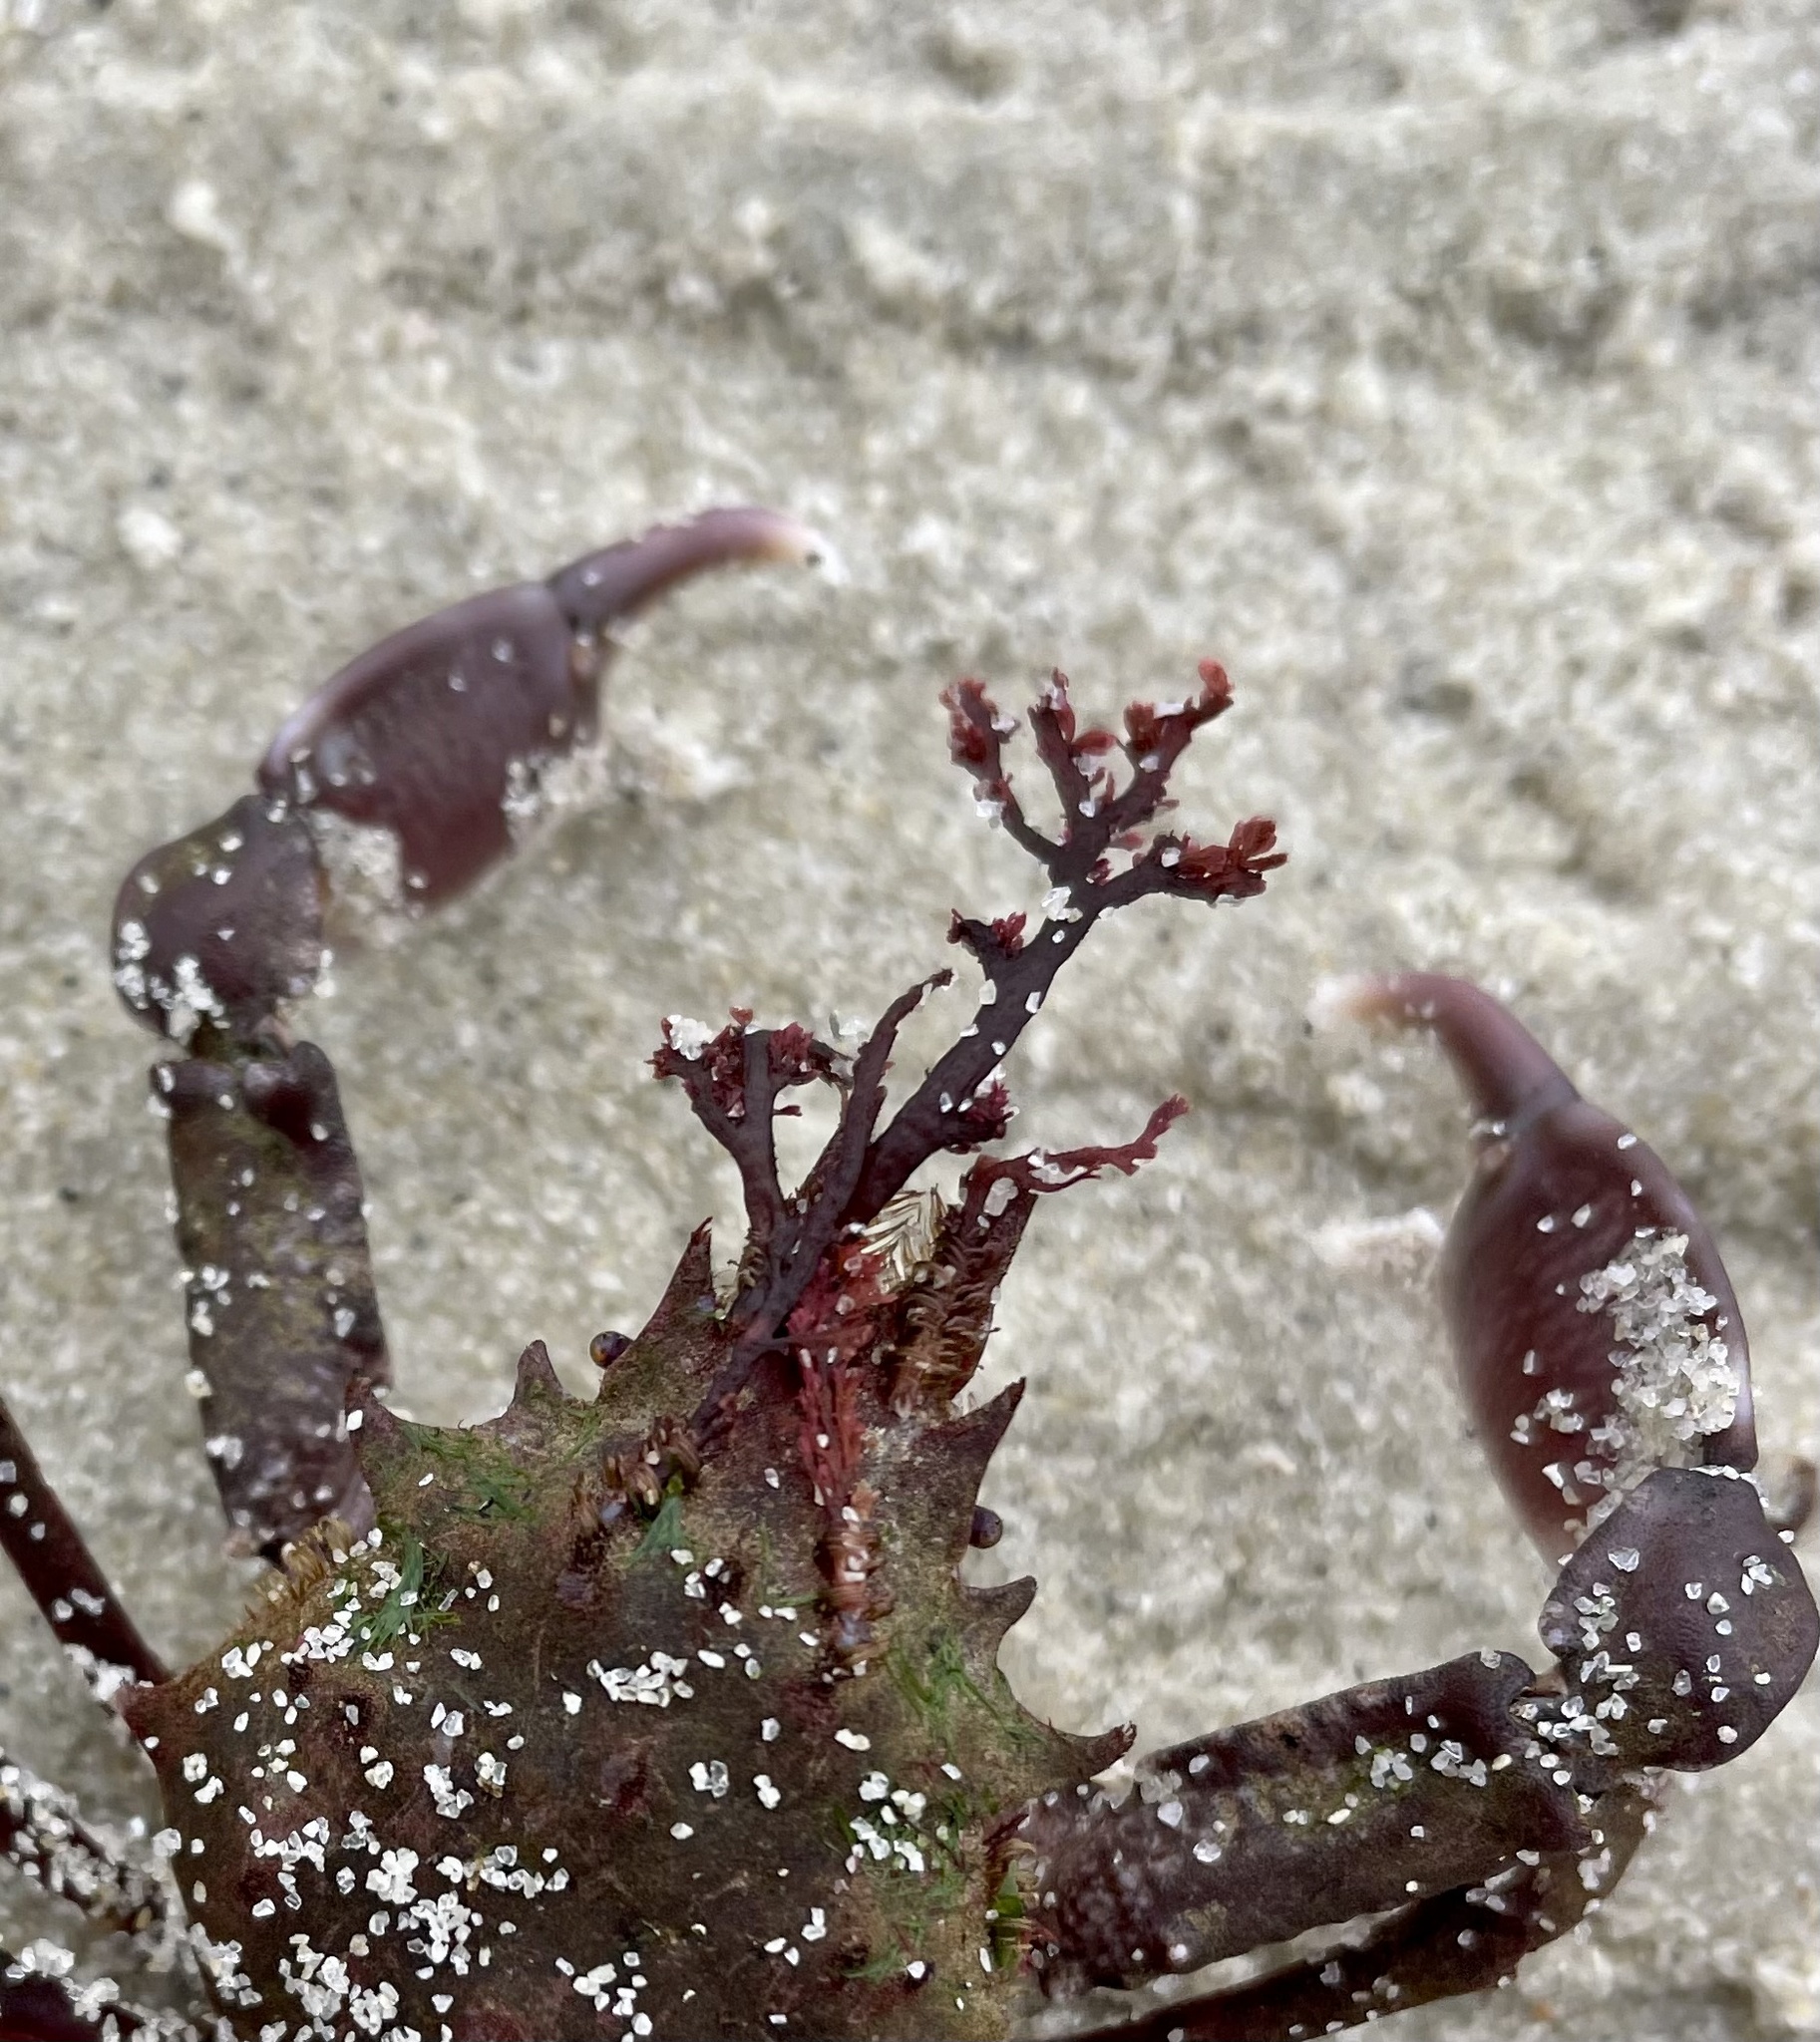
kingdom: Animalia
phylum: Arthropoda
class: Malacostraca
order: Decapoda
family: Epialtidae
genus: Pugettia
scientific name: Pugettia richii
